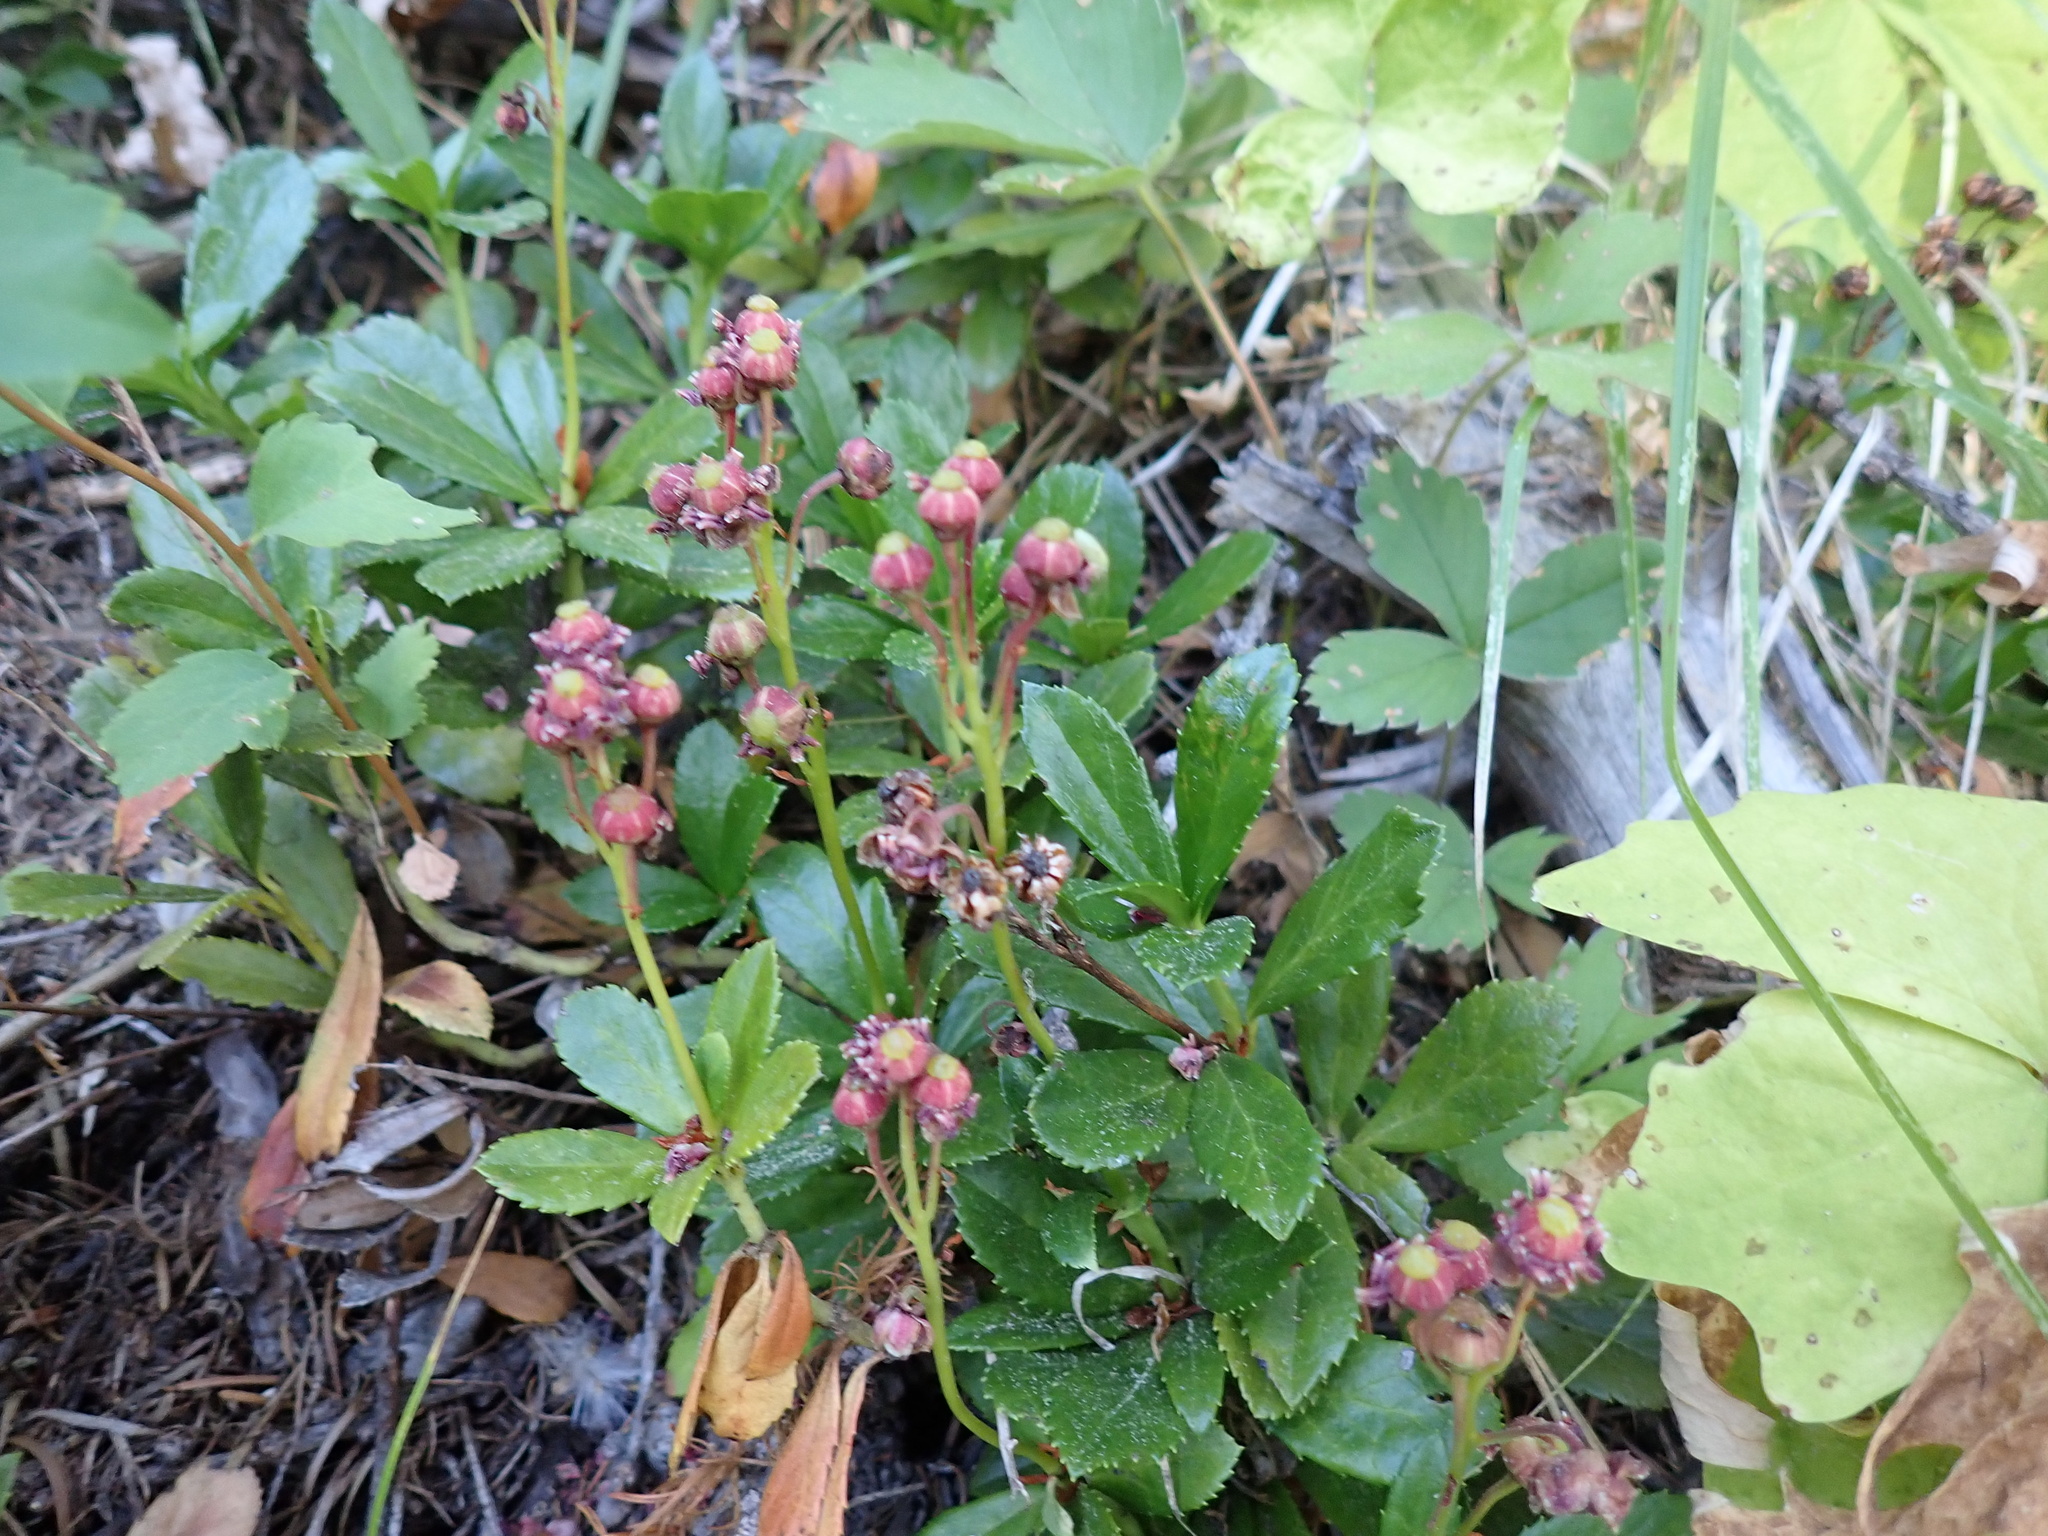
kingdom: Plantae
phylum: Tracheophyta
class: Magnoliopsida
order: Ericales
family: Ericaceae
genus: Chimaphila
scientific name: Chimaphila umbellata
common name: Pipsissewa
